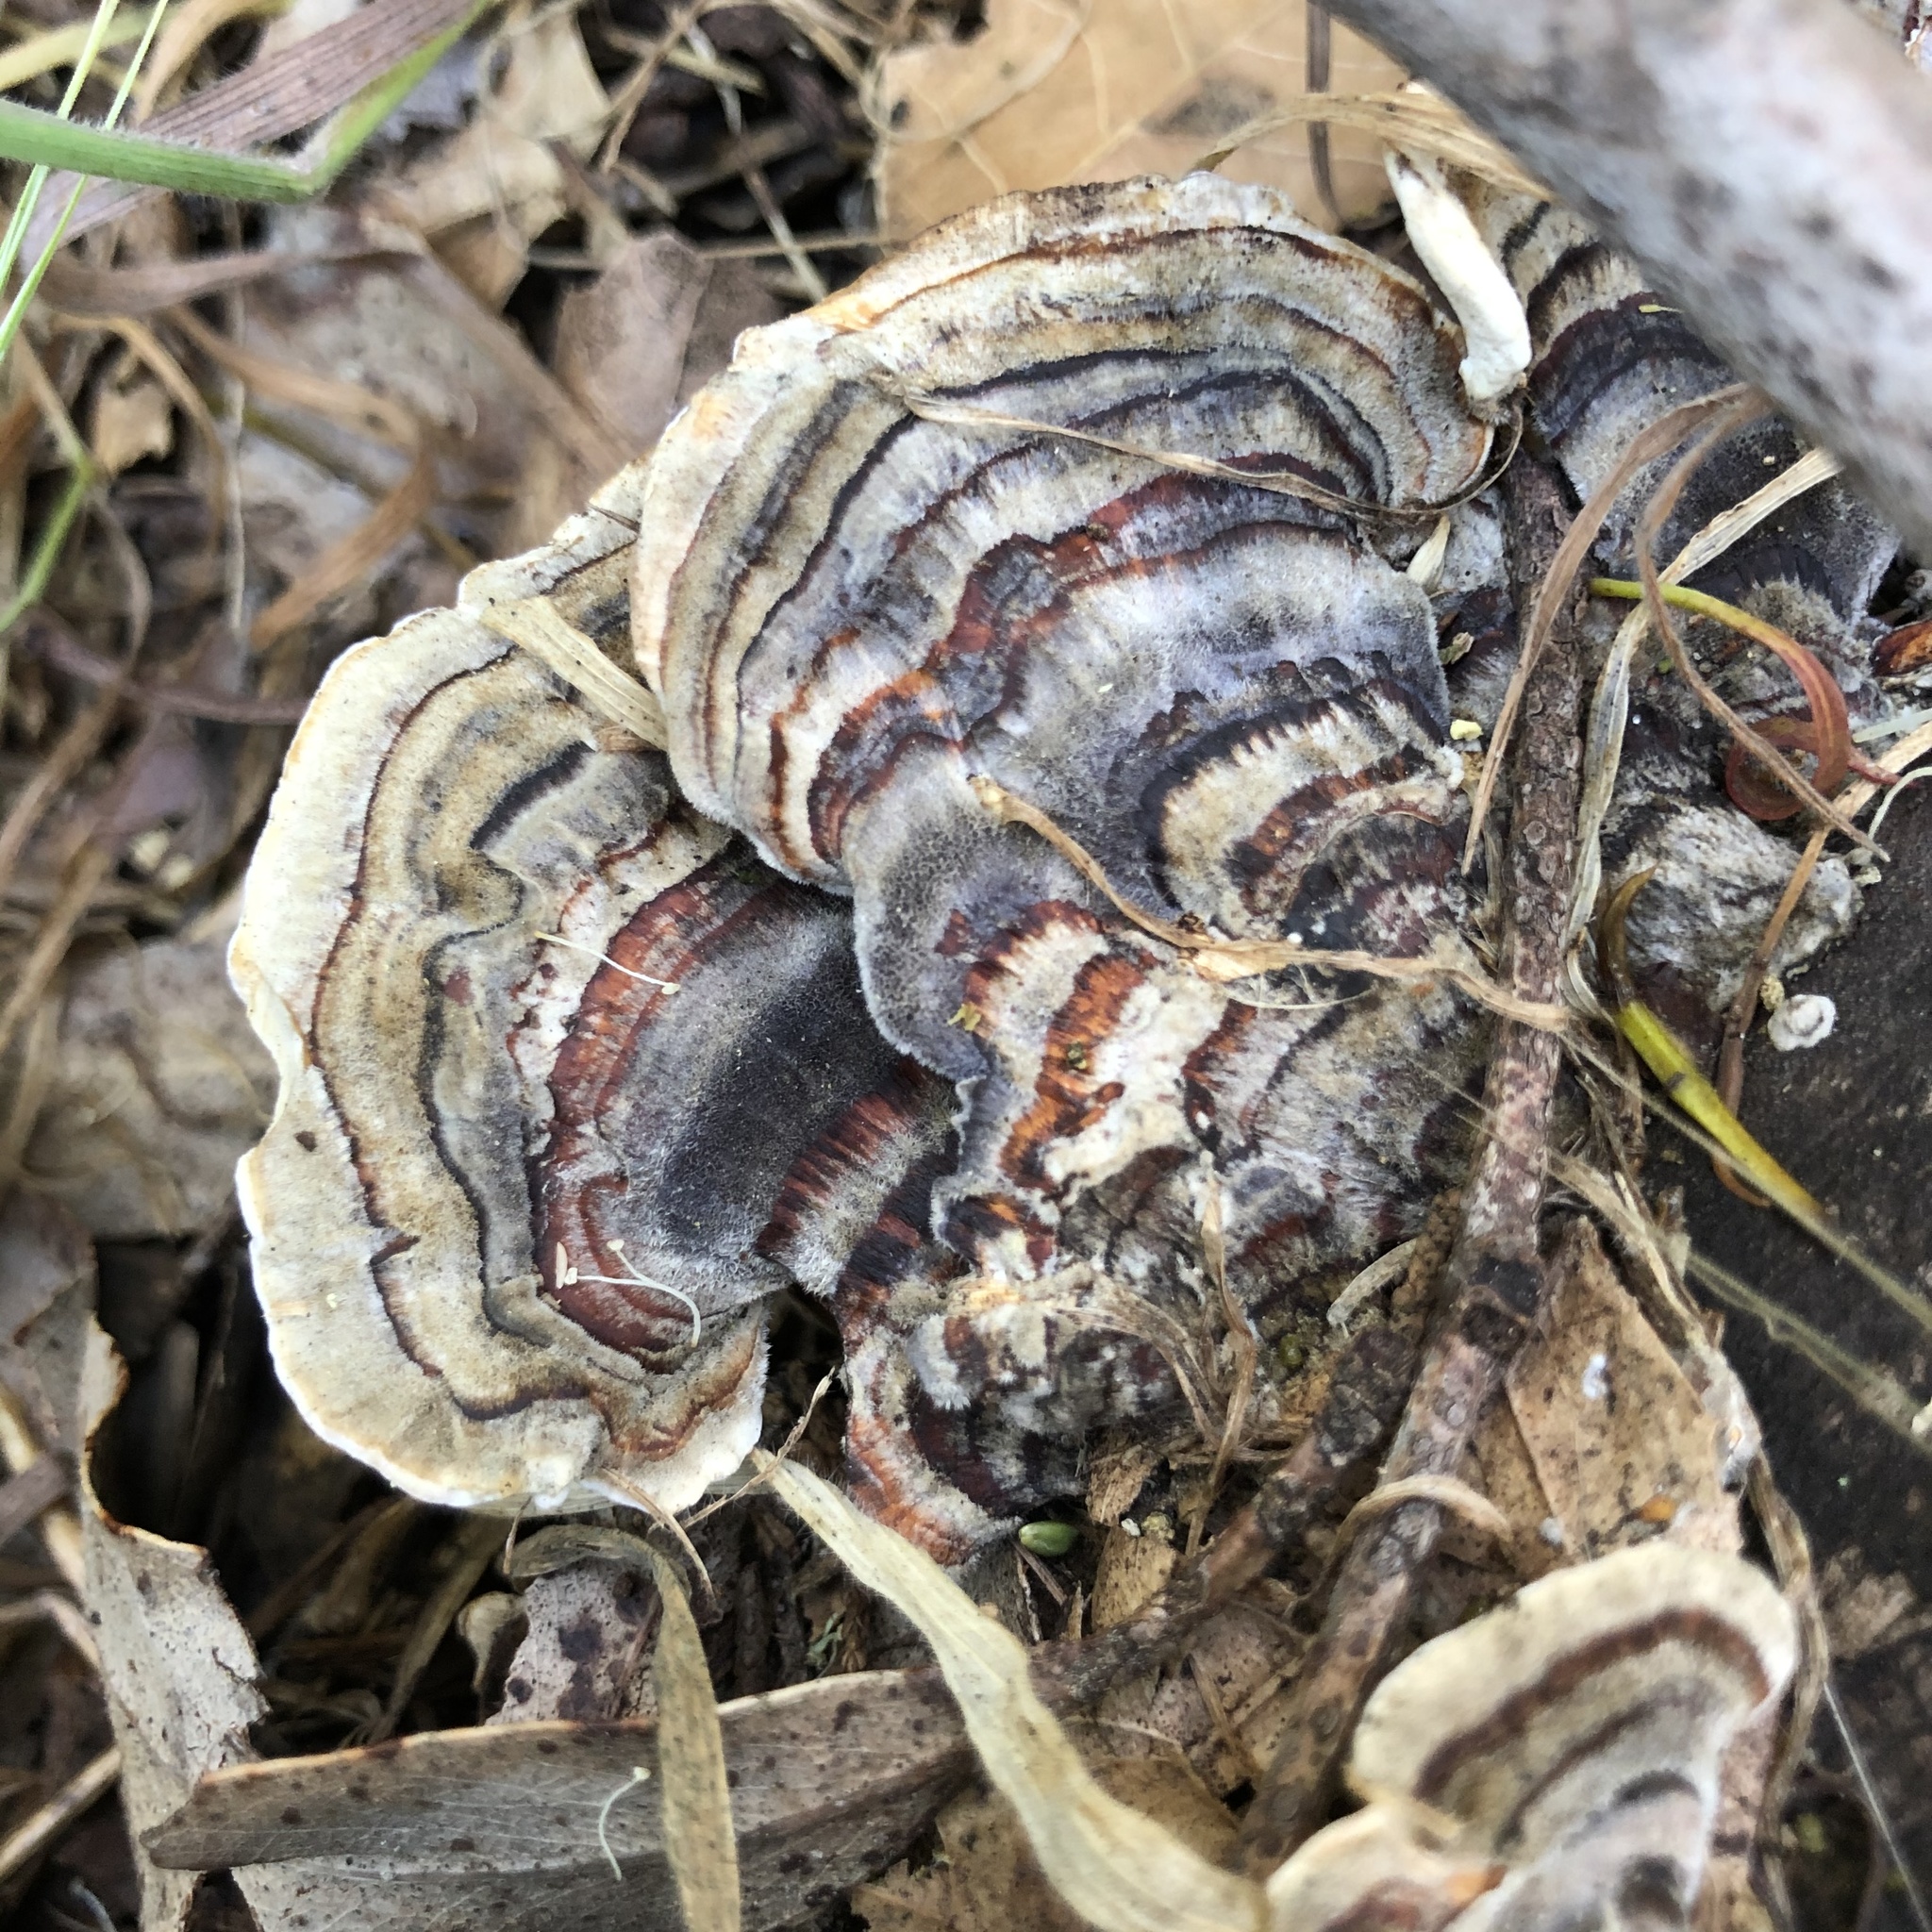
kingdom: Fungi
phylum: Basidiomycota
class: Agaricomycetes
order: Polyporales
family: Polyporaceae
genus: Trametes
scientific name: Trametes versicolor
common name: Turkeytail
